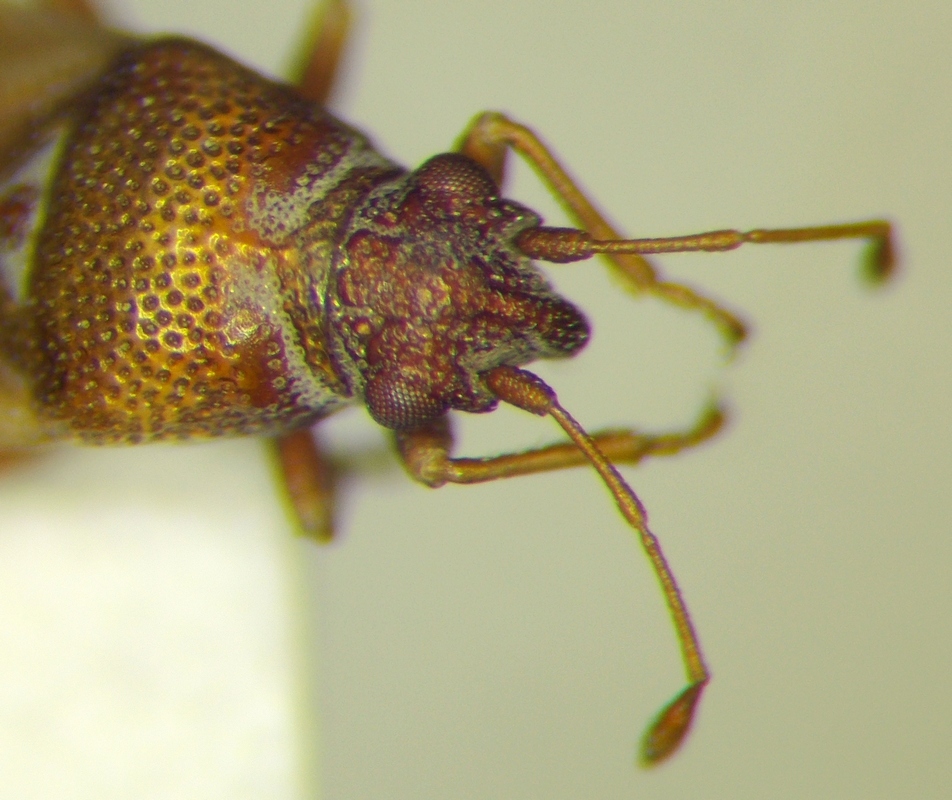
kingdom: Animalia
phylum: Arthropoda
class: Insecta
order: Hemiptera
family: Cymidae
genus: Cymus
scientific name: Cymus claviculus
